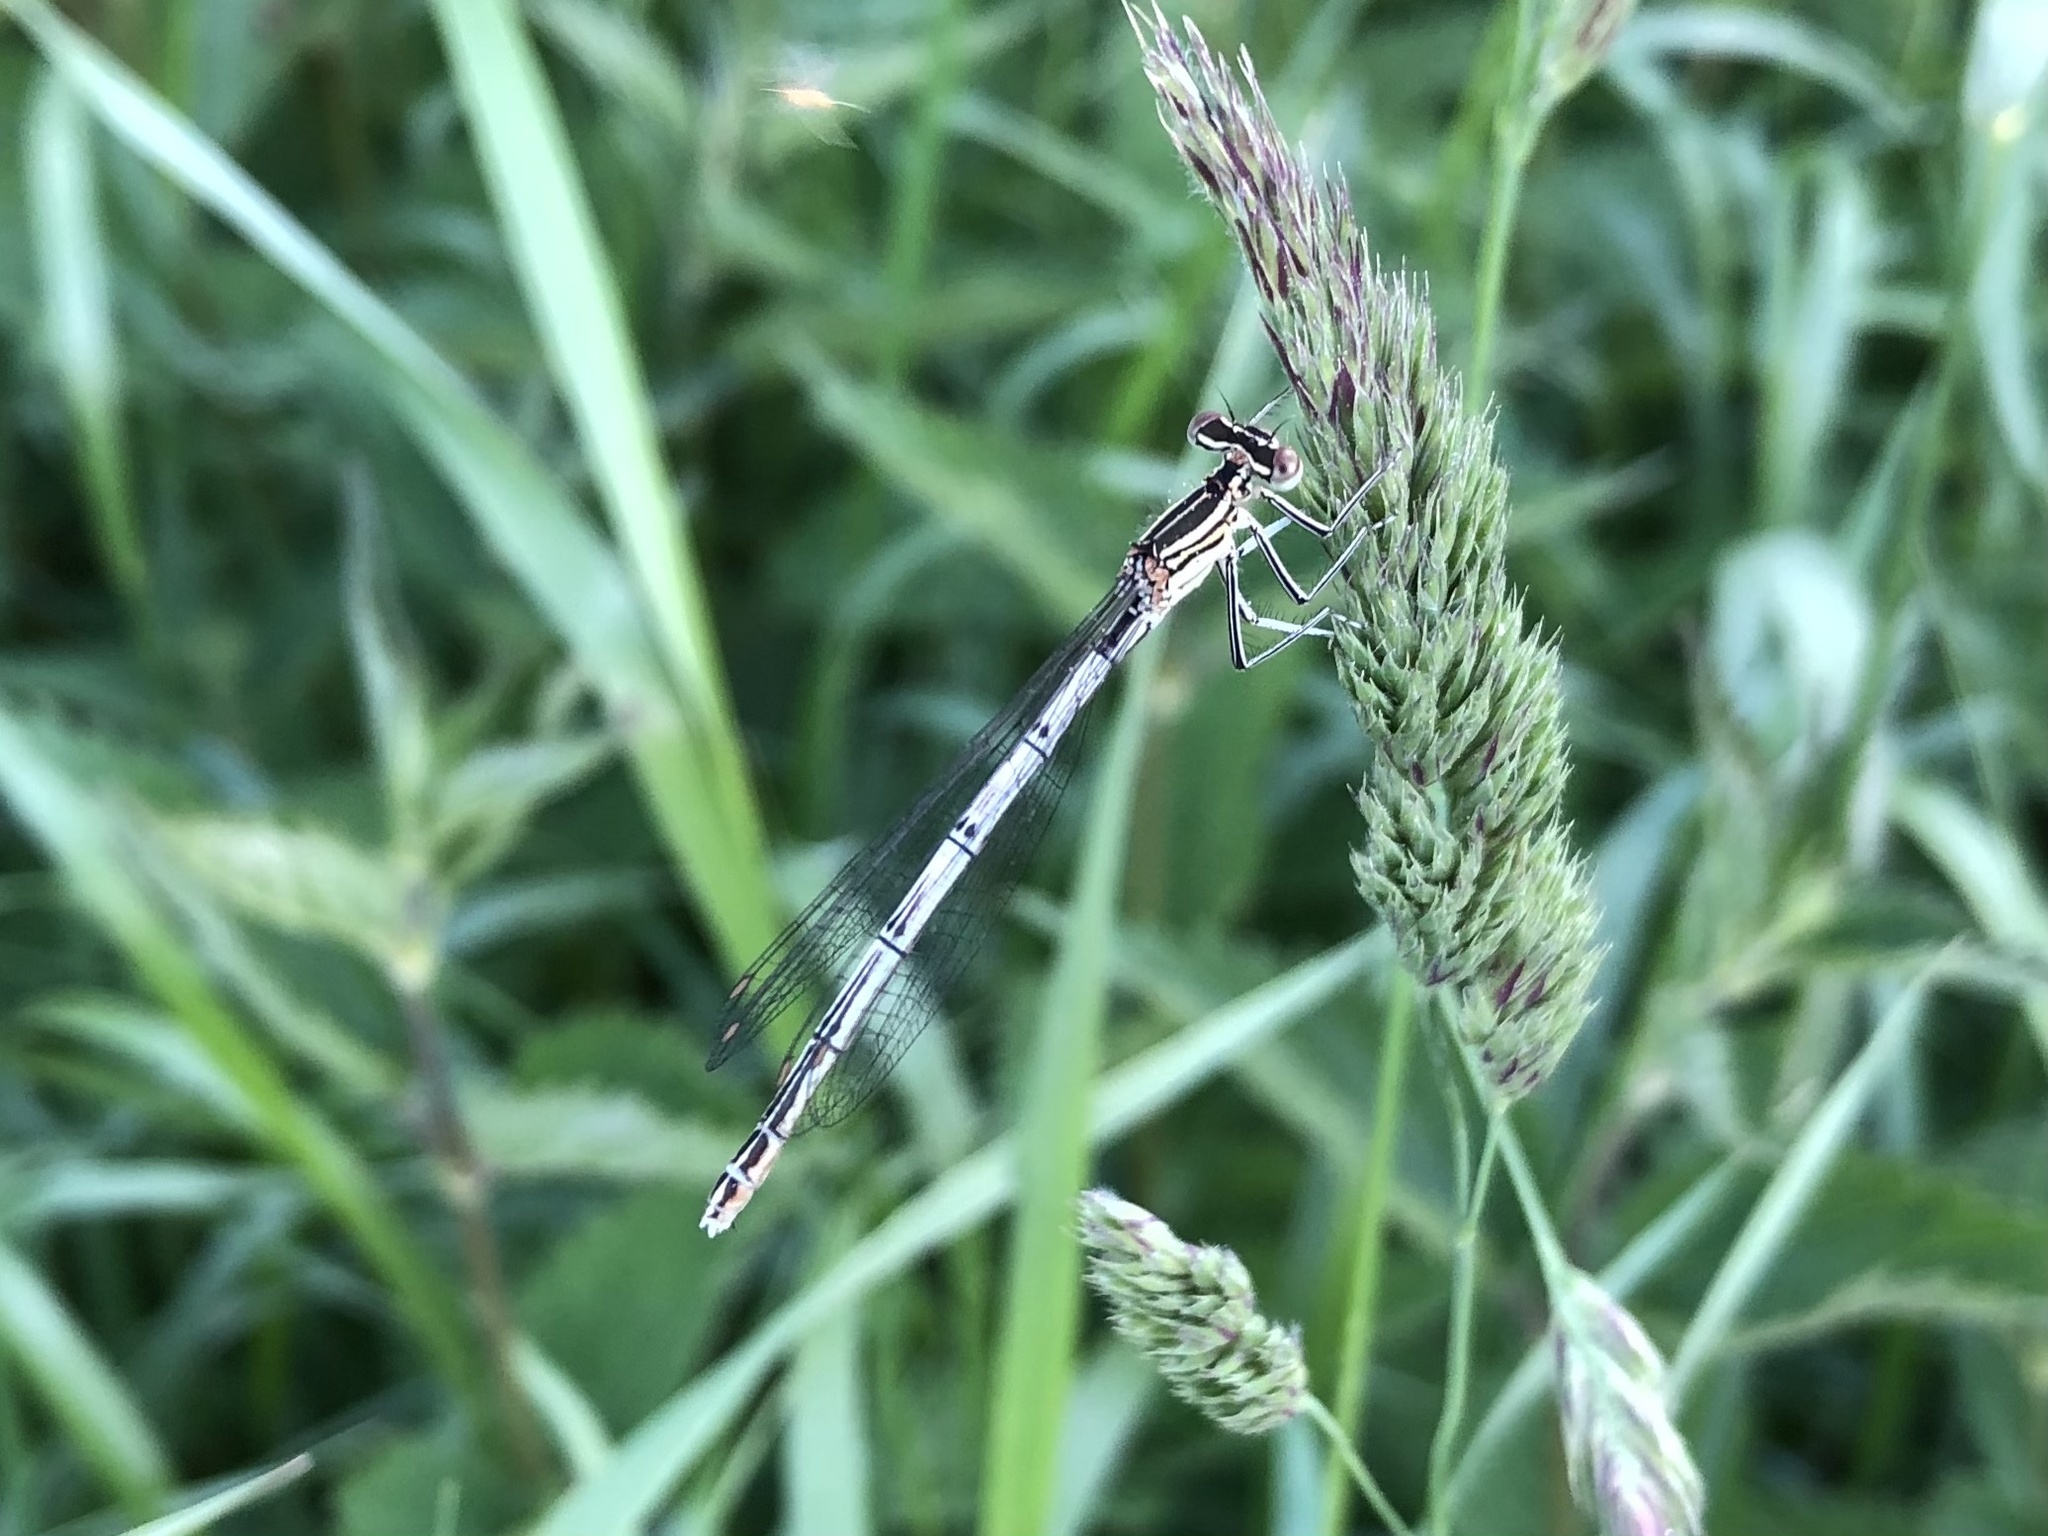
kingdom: Animalia
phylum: Arthropoda
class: Insecta
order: Odonata
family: Platycnemididae
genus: Platycnemis
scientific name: Platycnemis pennipes
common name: White-legged damselfly
